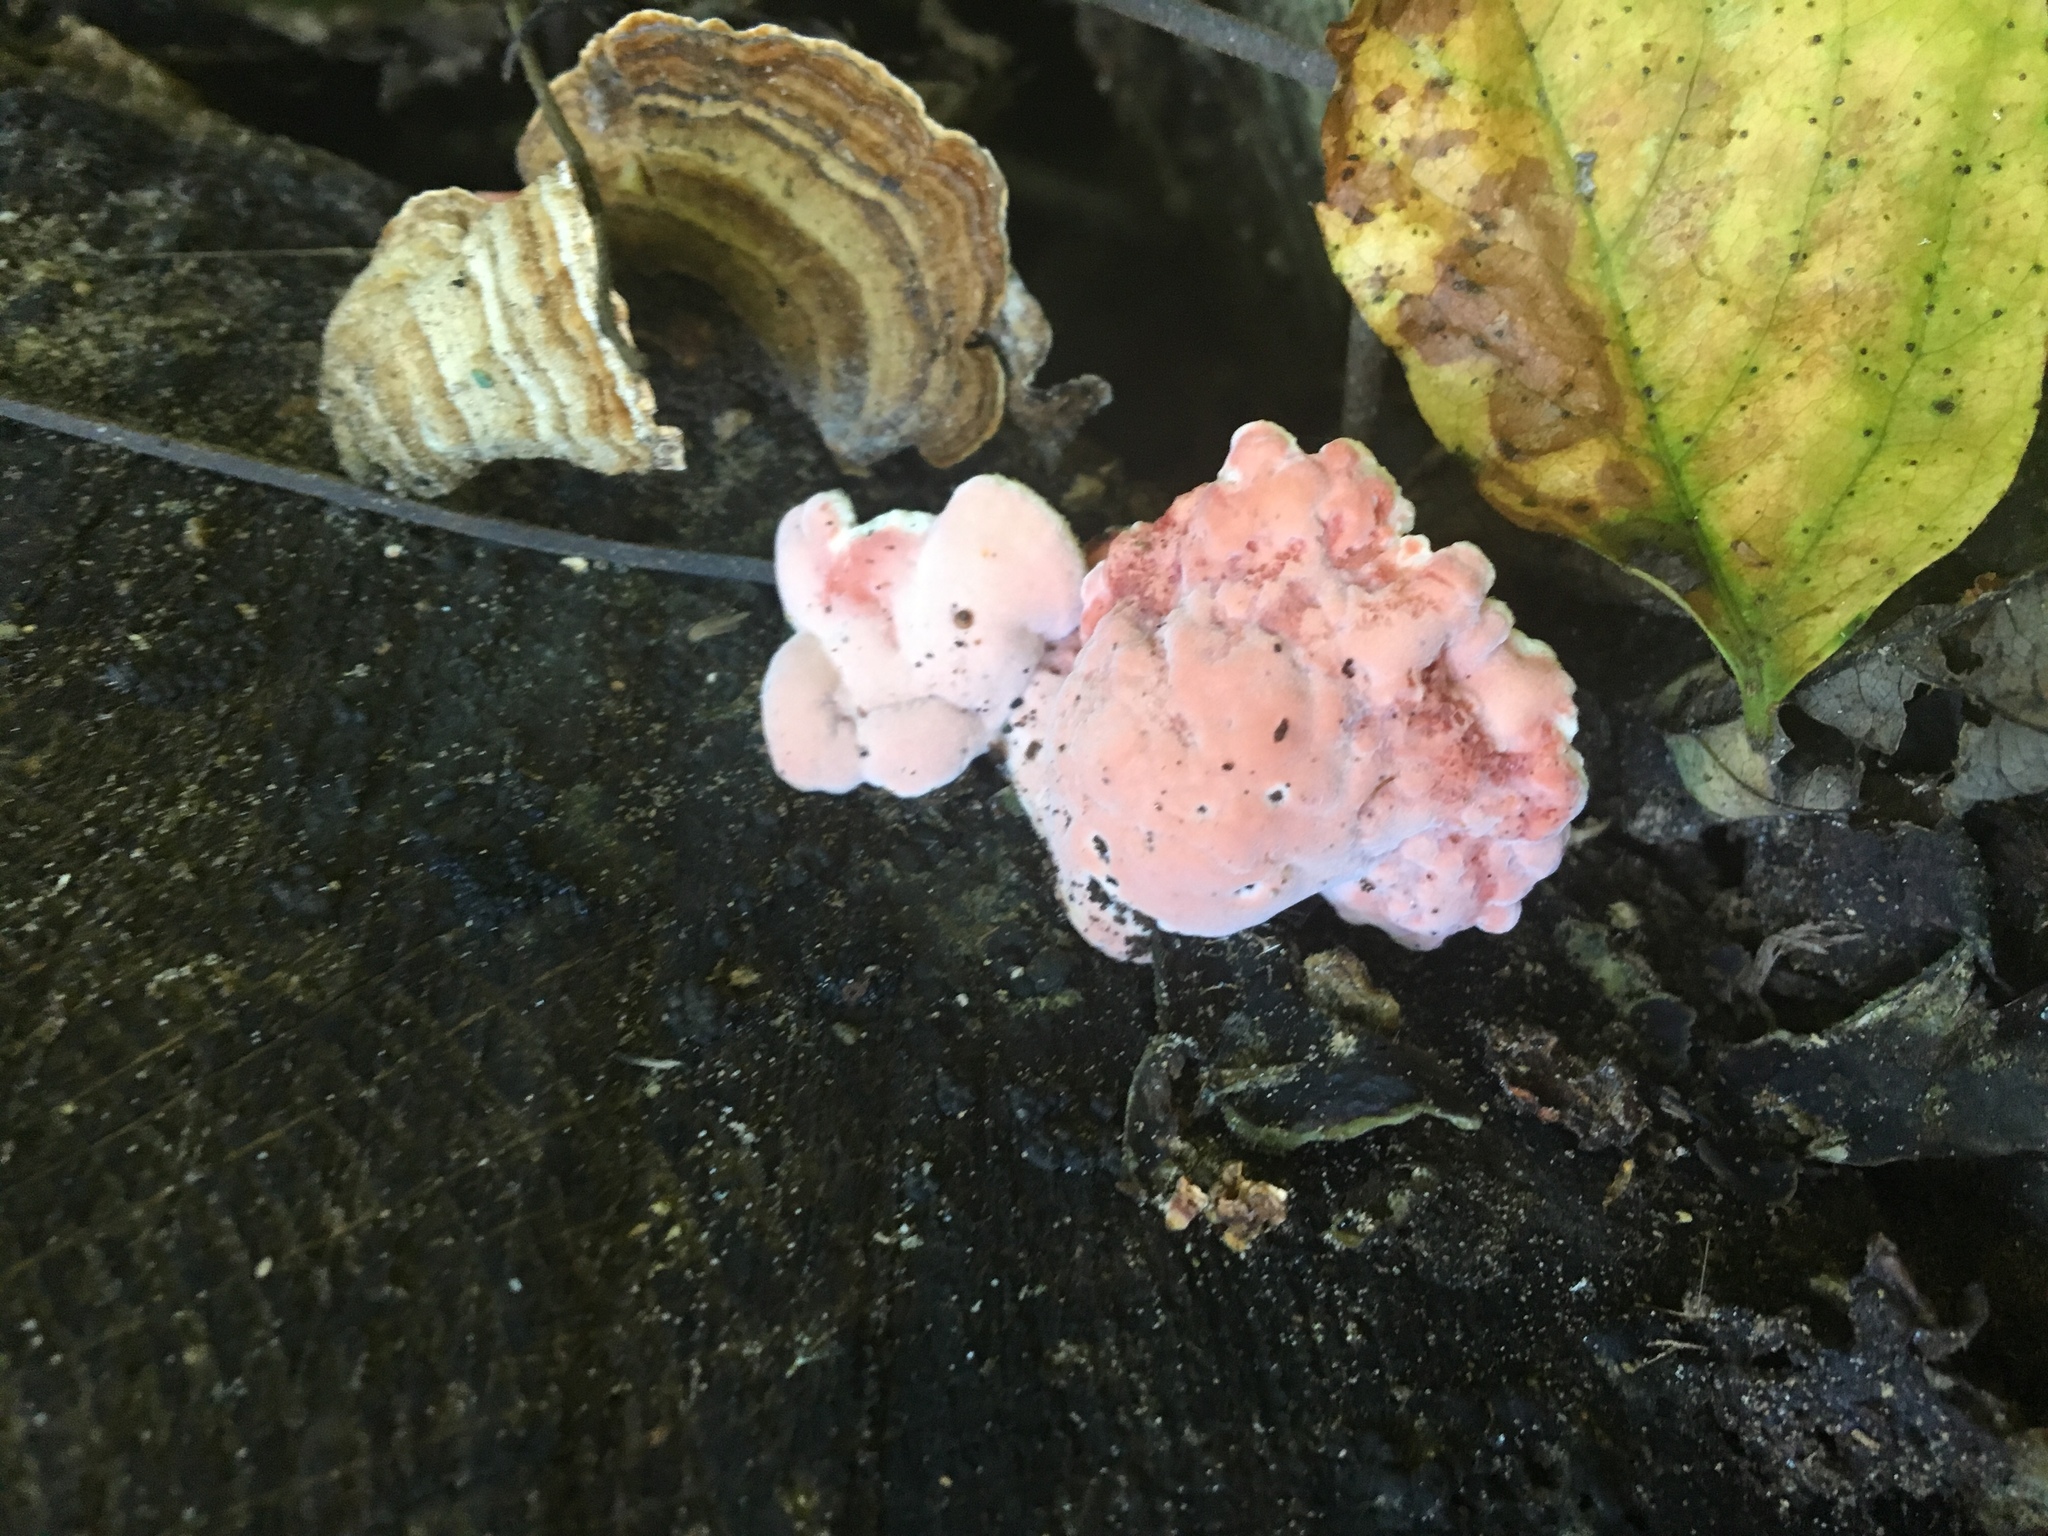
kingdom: Fungi
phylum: Basidiomycota
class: Agaricomycetes
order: Polyporales
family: Irpicaceae
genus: Byssomerulius
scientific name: Byssomerulius incarnatus
